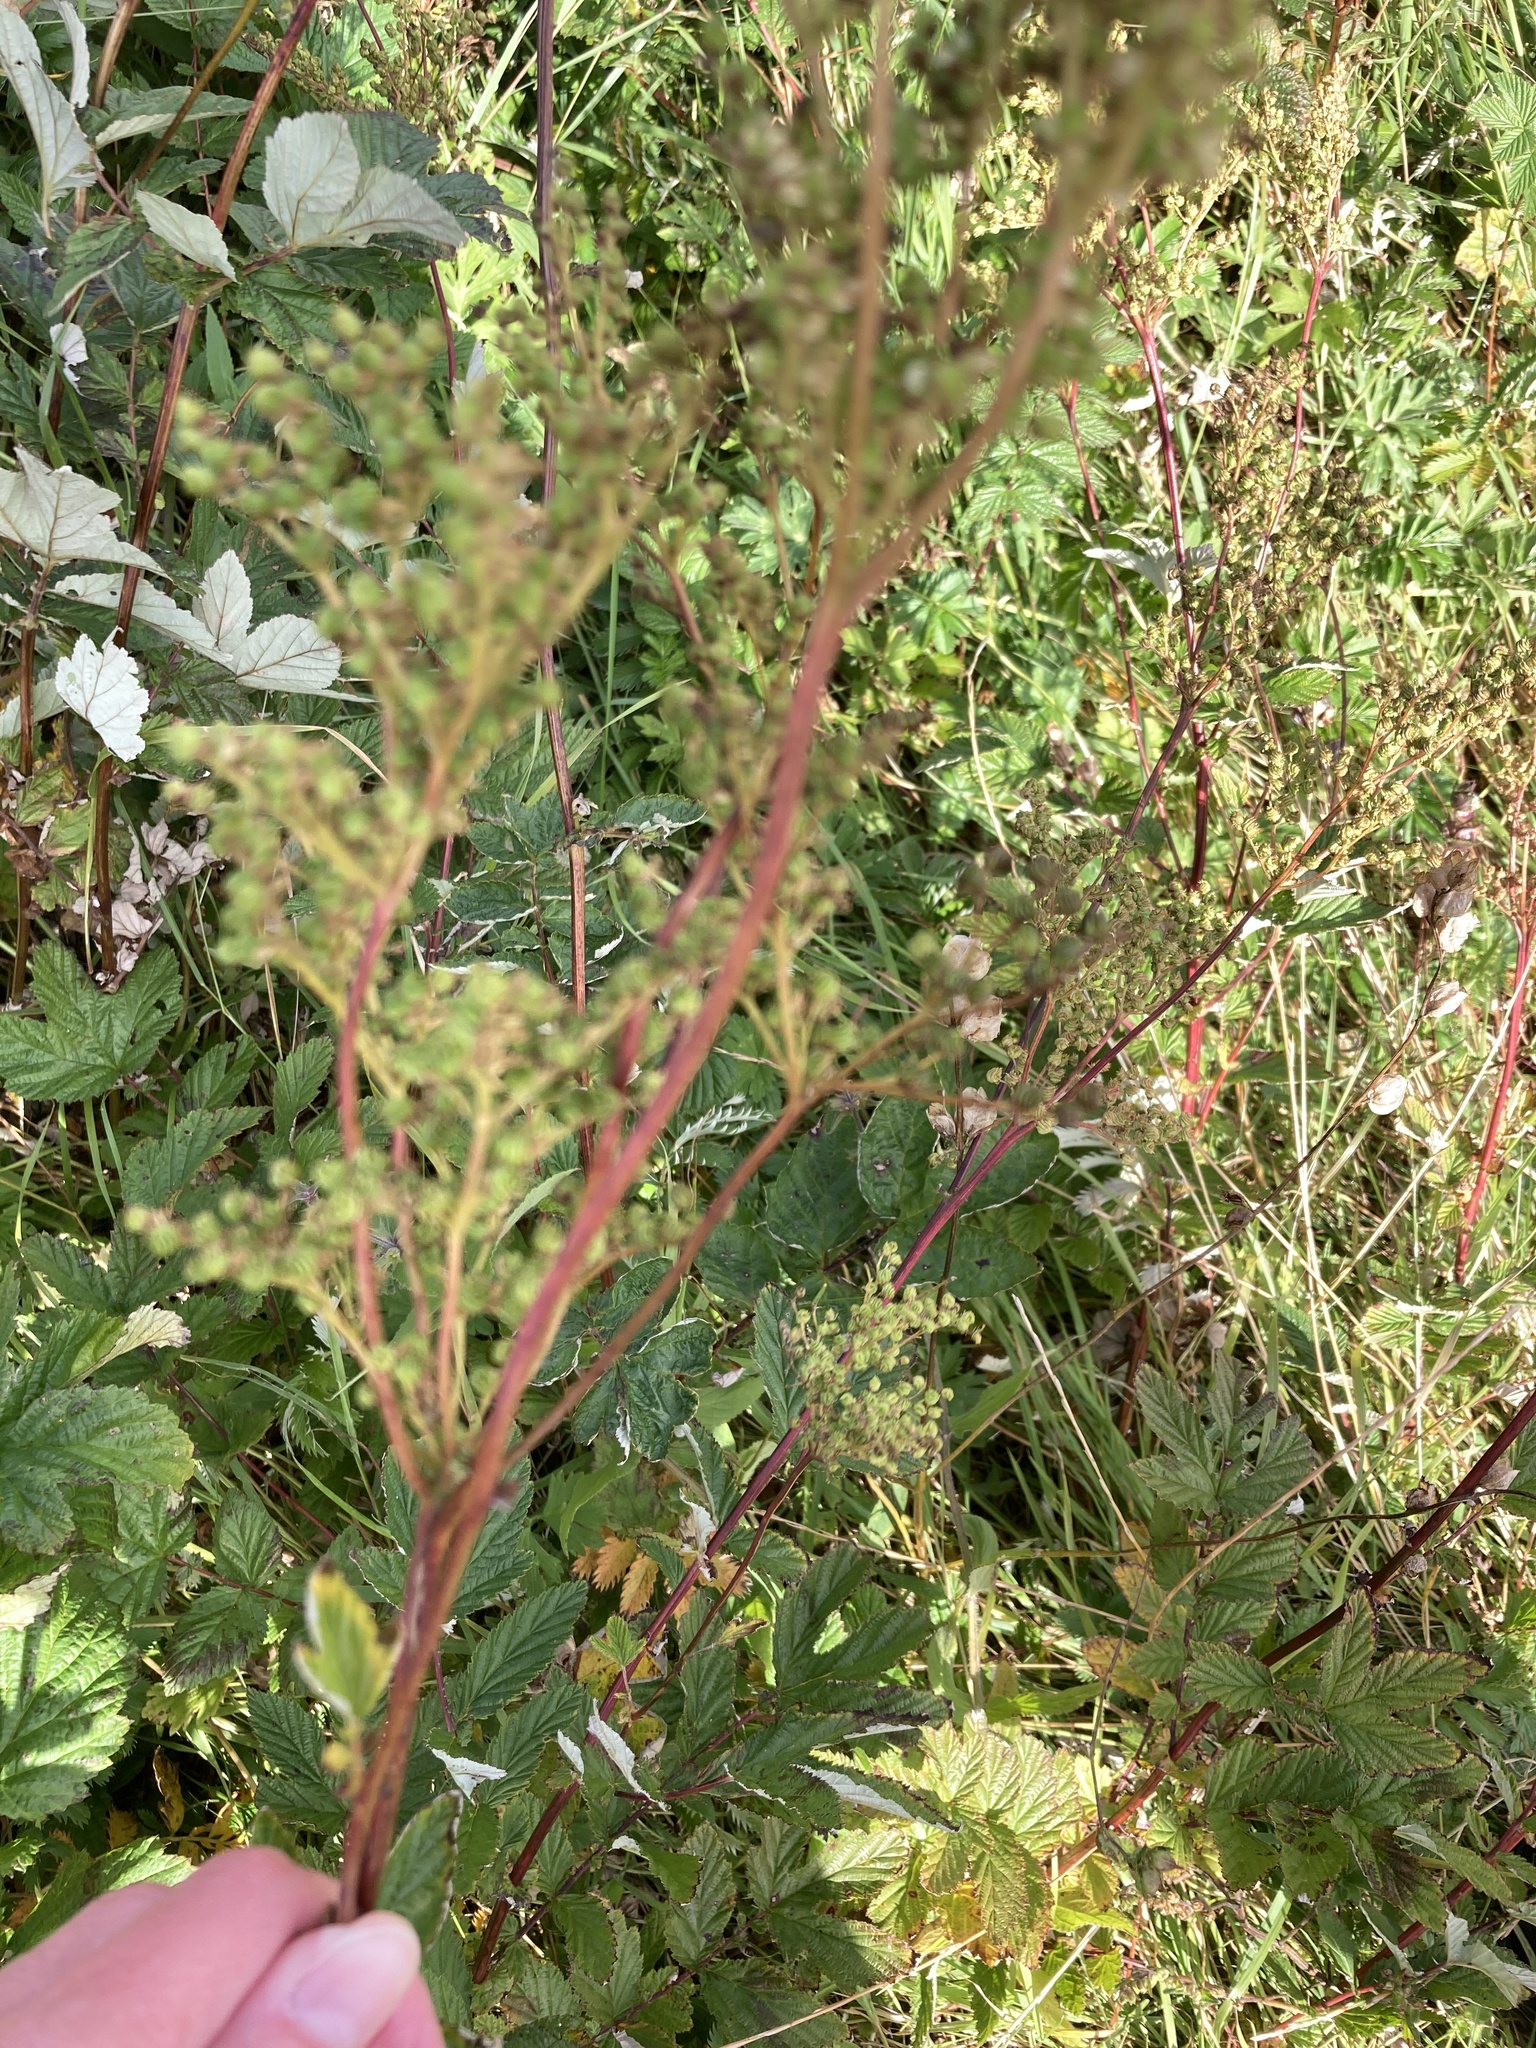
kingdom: Plantae
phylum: Tracheophyta
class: Magnoliopsida
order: Rosales
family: Rosaceae
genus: Filipendula
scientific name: Filipendula ulmaria
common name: Meadowsweet
